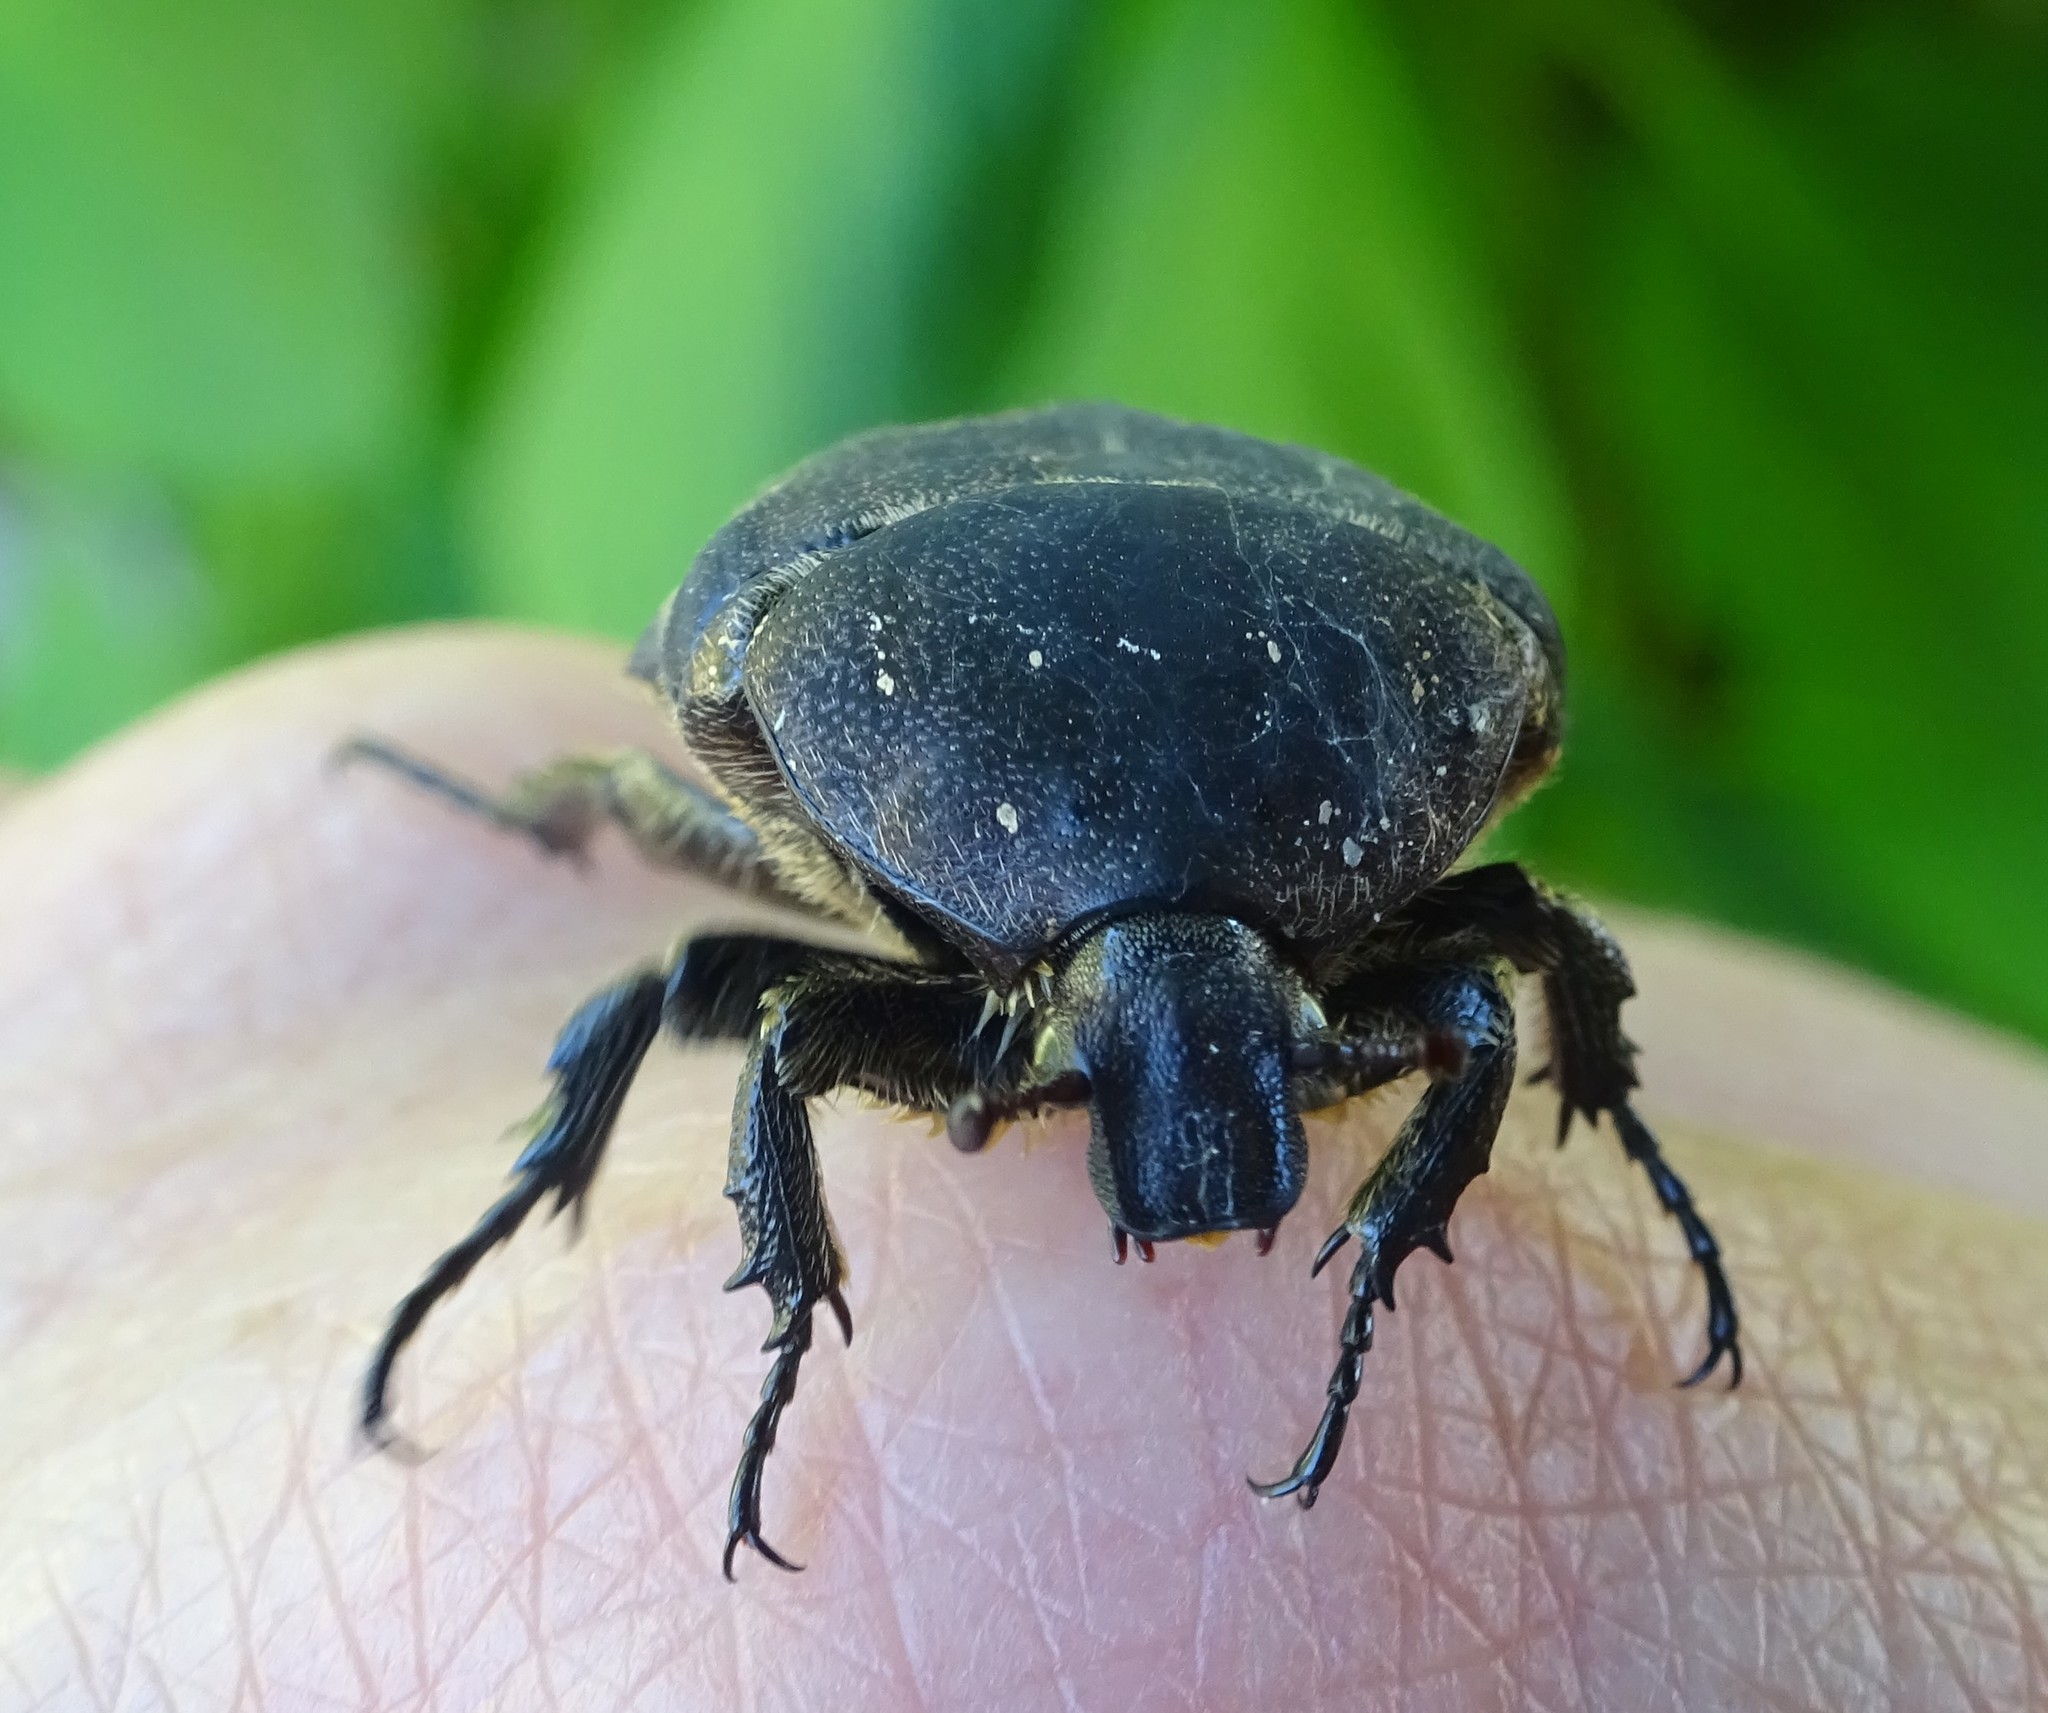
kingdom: Animalia
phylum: Arthropoda
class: Insecta
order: Coleoptera
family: Scarabaeidae
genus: Protaetia
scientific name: Protaetia morio
